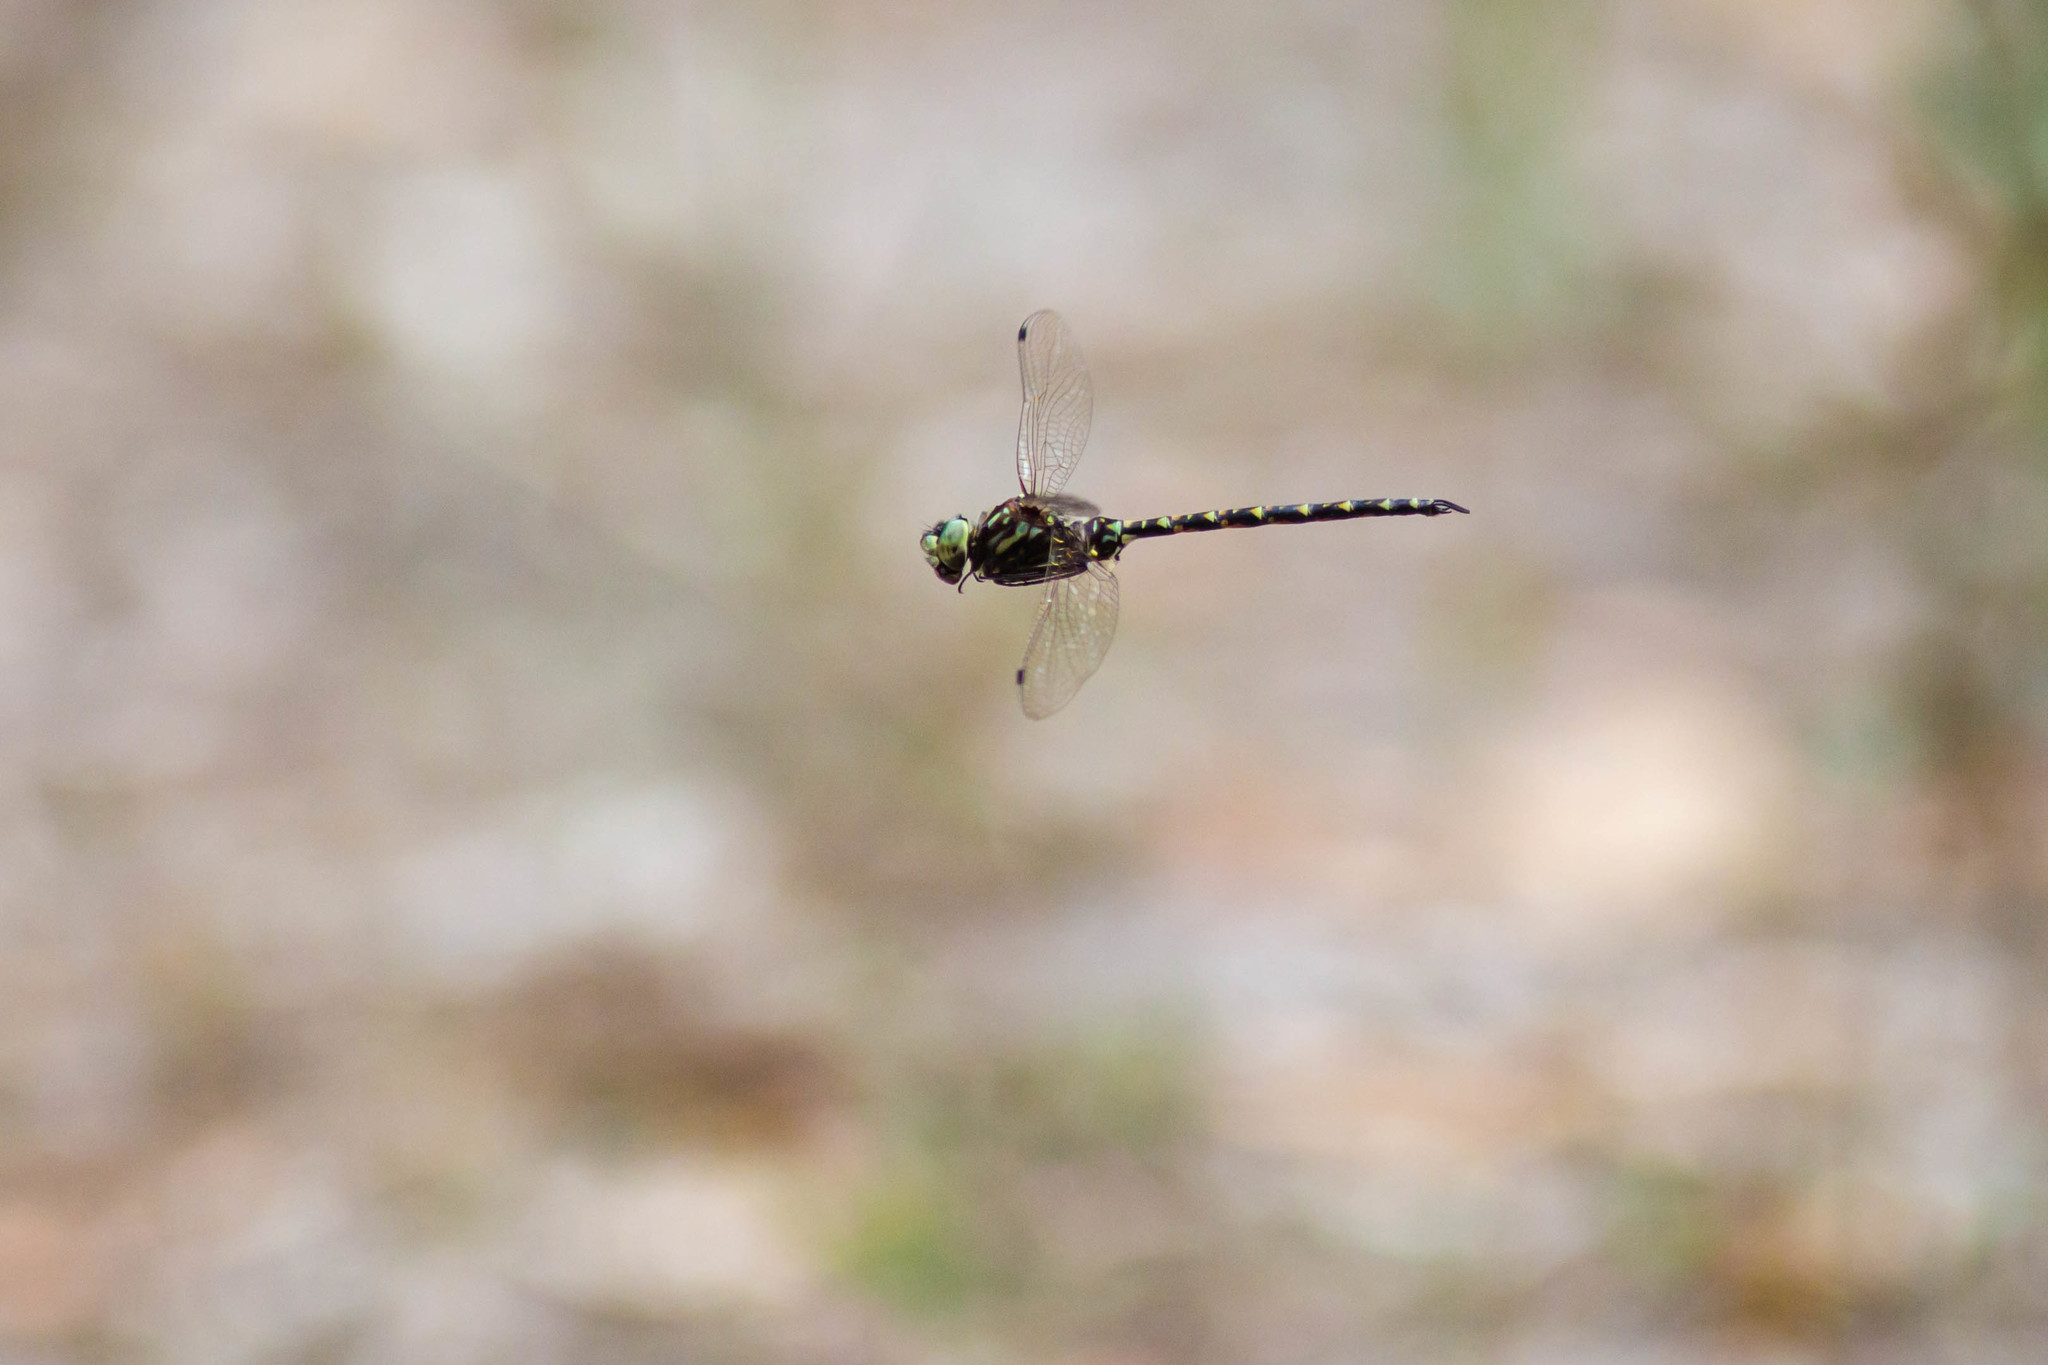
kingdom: Animalia
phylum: Arthropoda
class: Insecta
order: Odonata
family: Aeshnidae
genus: Gomphaeschna
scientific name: Gomphaeschna furcillata
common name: Harlequin darner
